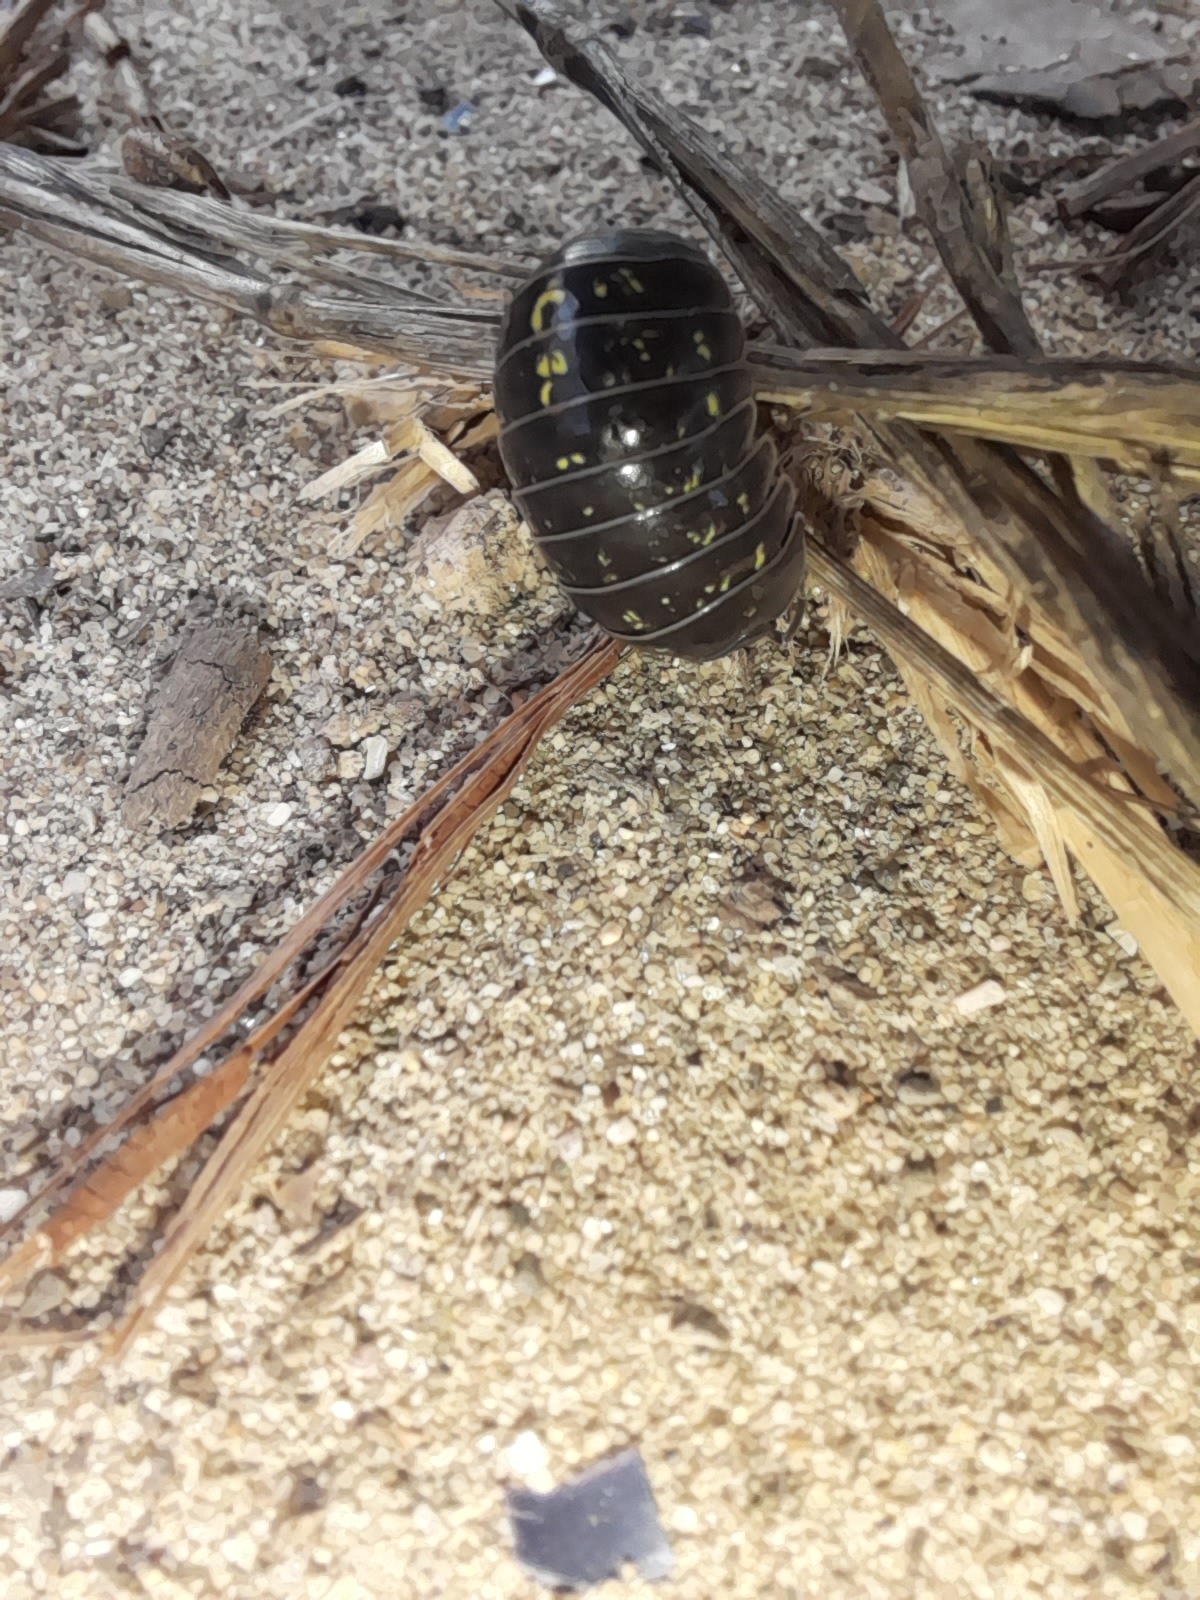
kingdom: Animalia
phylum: Arthropoda
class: Malacostraca
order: Isopoda
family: Armadillidiidae
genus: Armadillidium
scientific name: Armadillidium vulgare
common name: Common pill woodlouse
